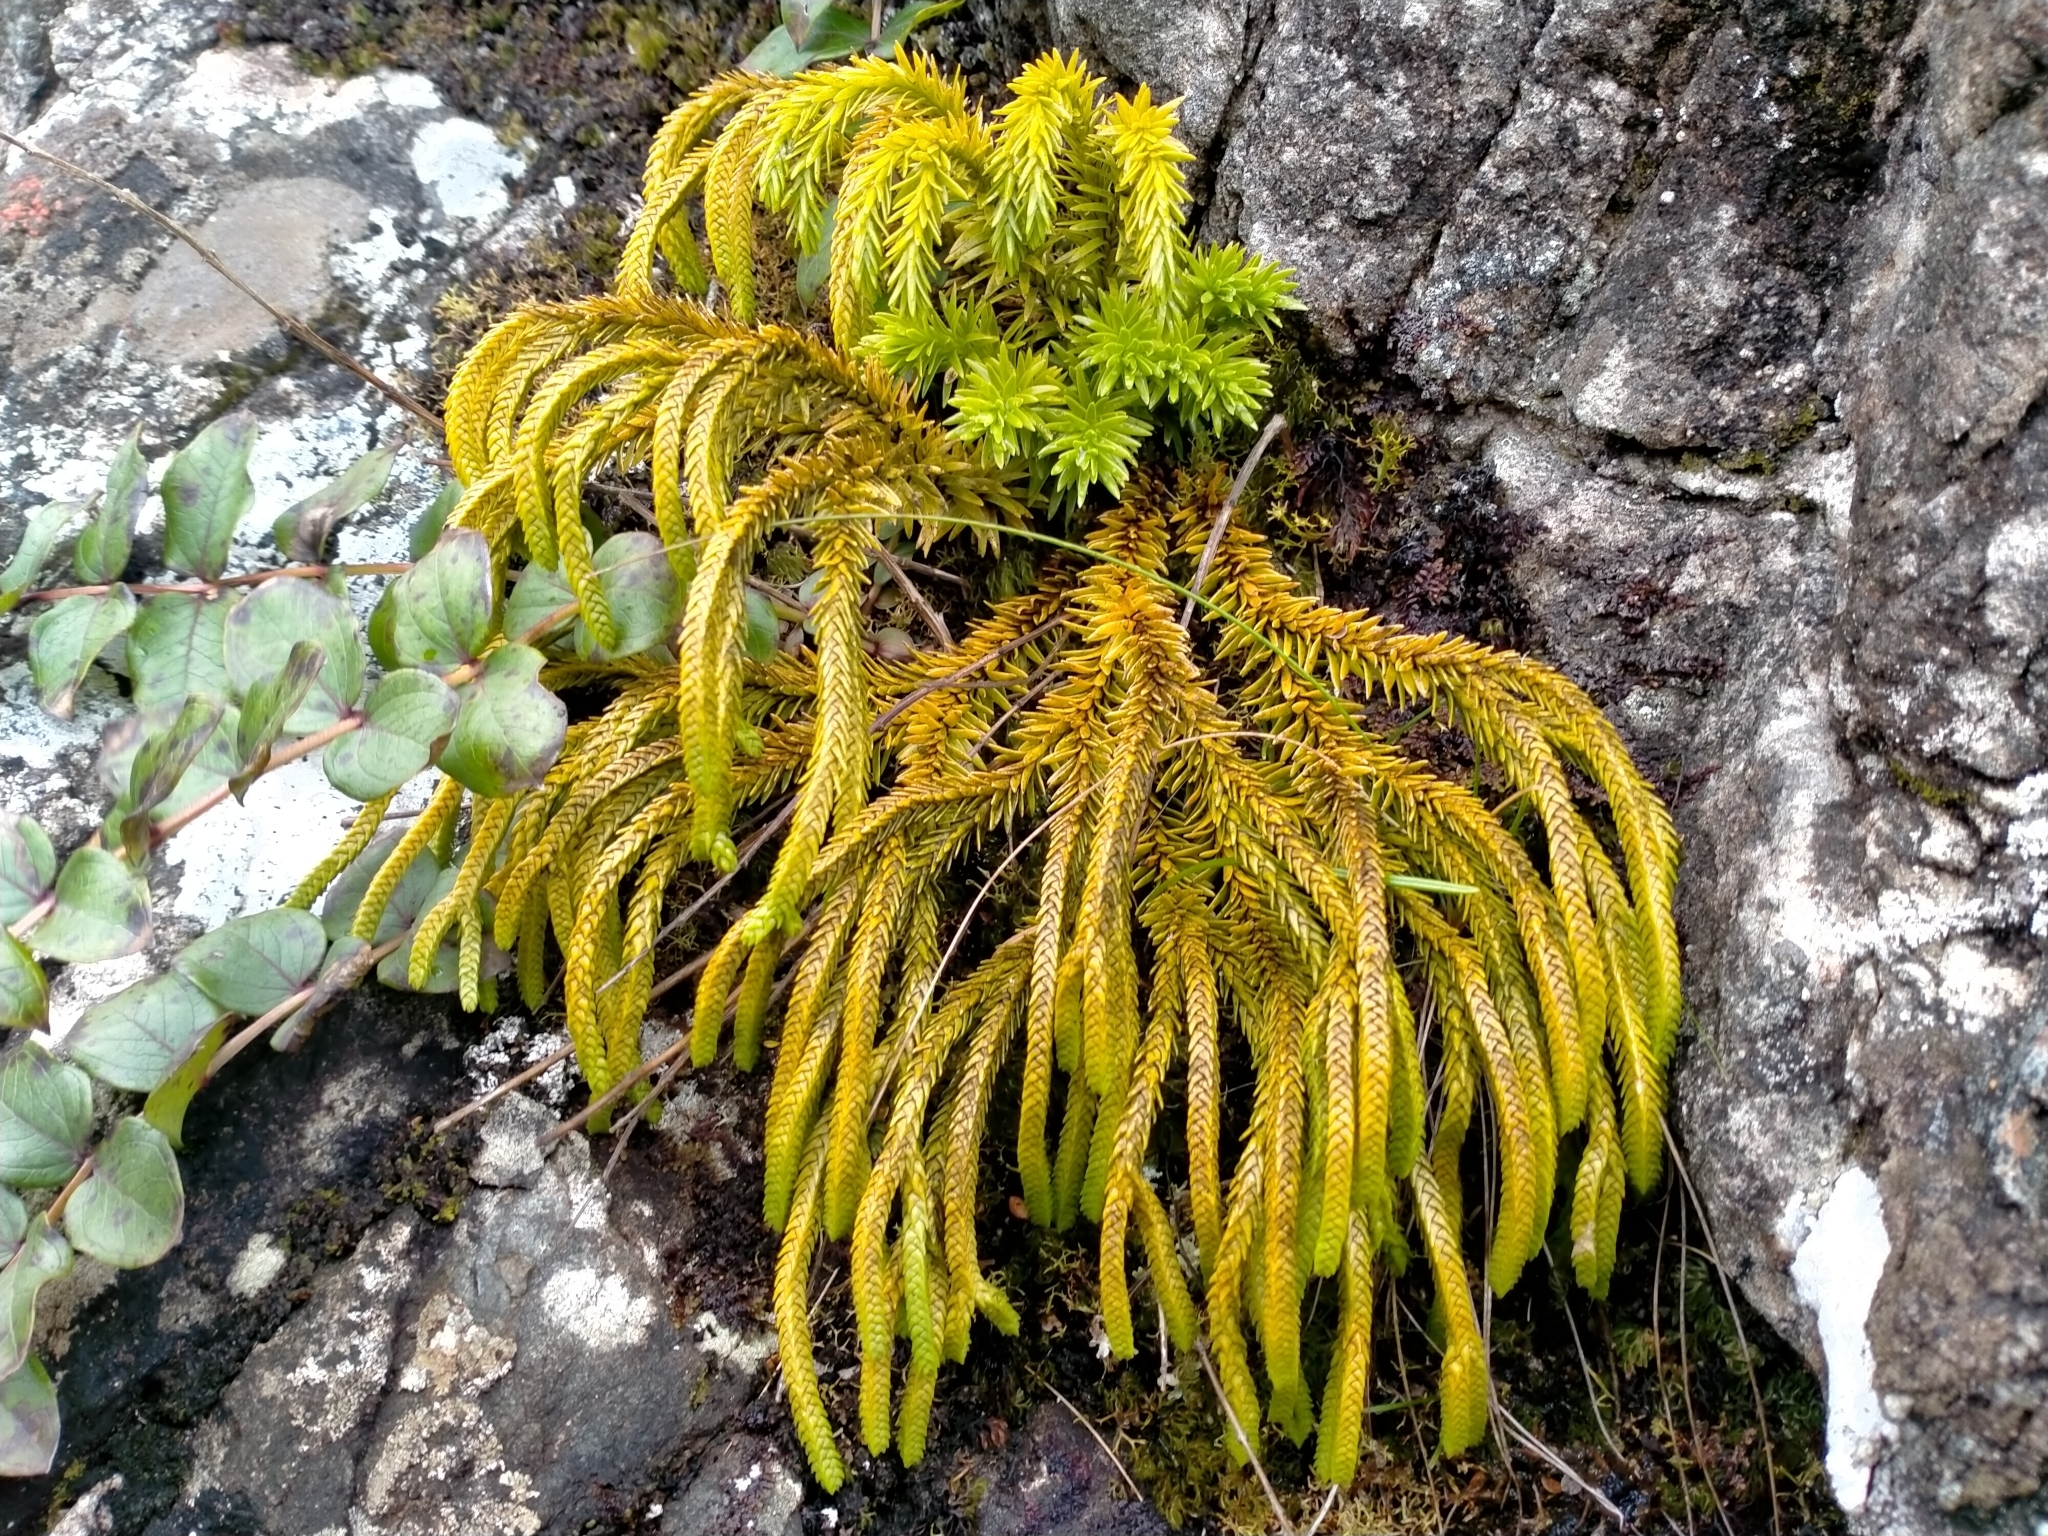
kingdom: Plantae
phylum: Tracheophyta
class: Lycopodiopsida
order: Lycopodiales
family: Lycopodiaceae
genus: Phlegmariurus
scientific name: Phlegmariurus varius
